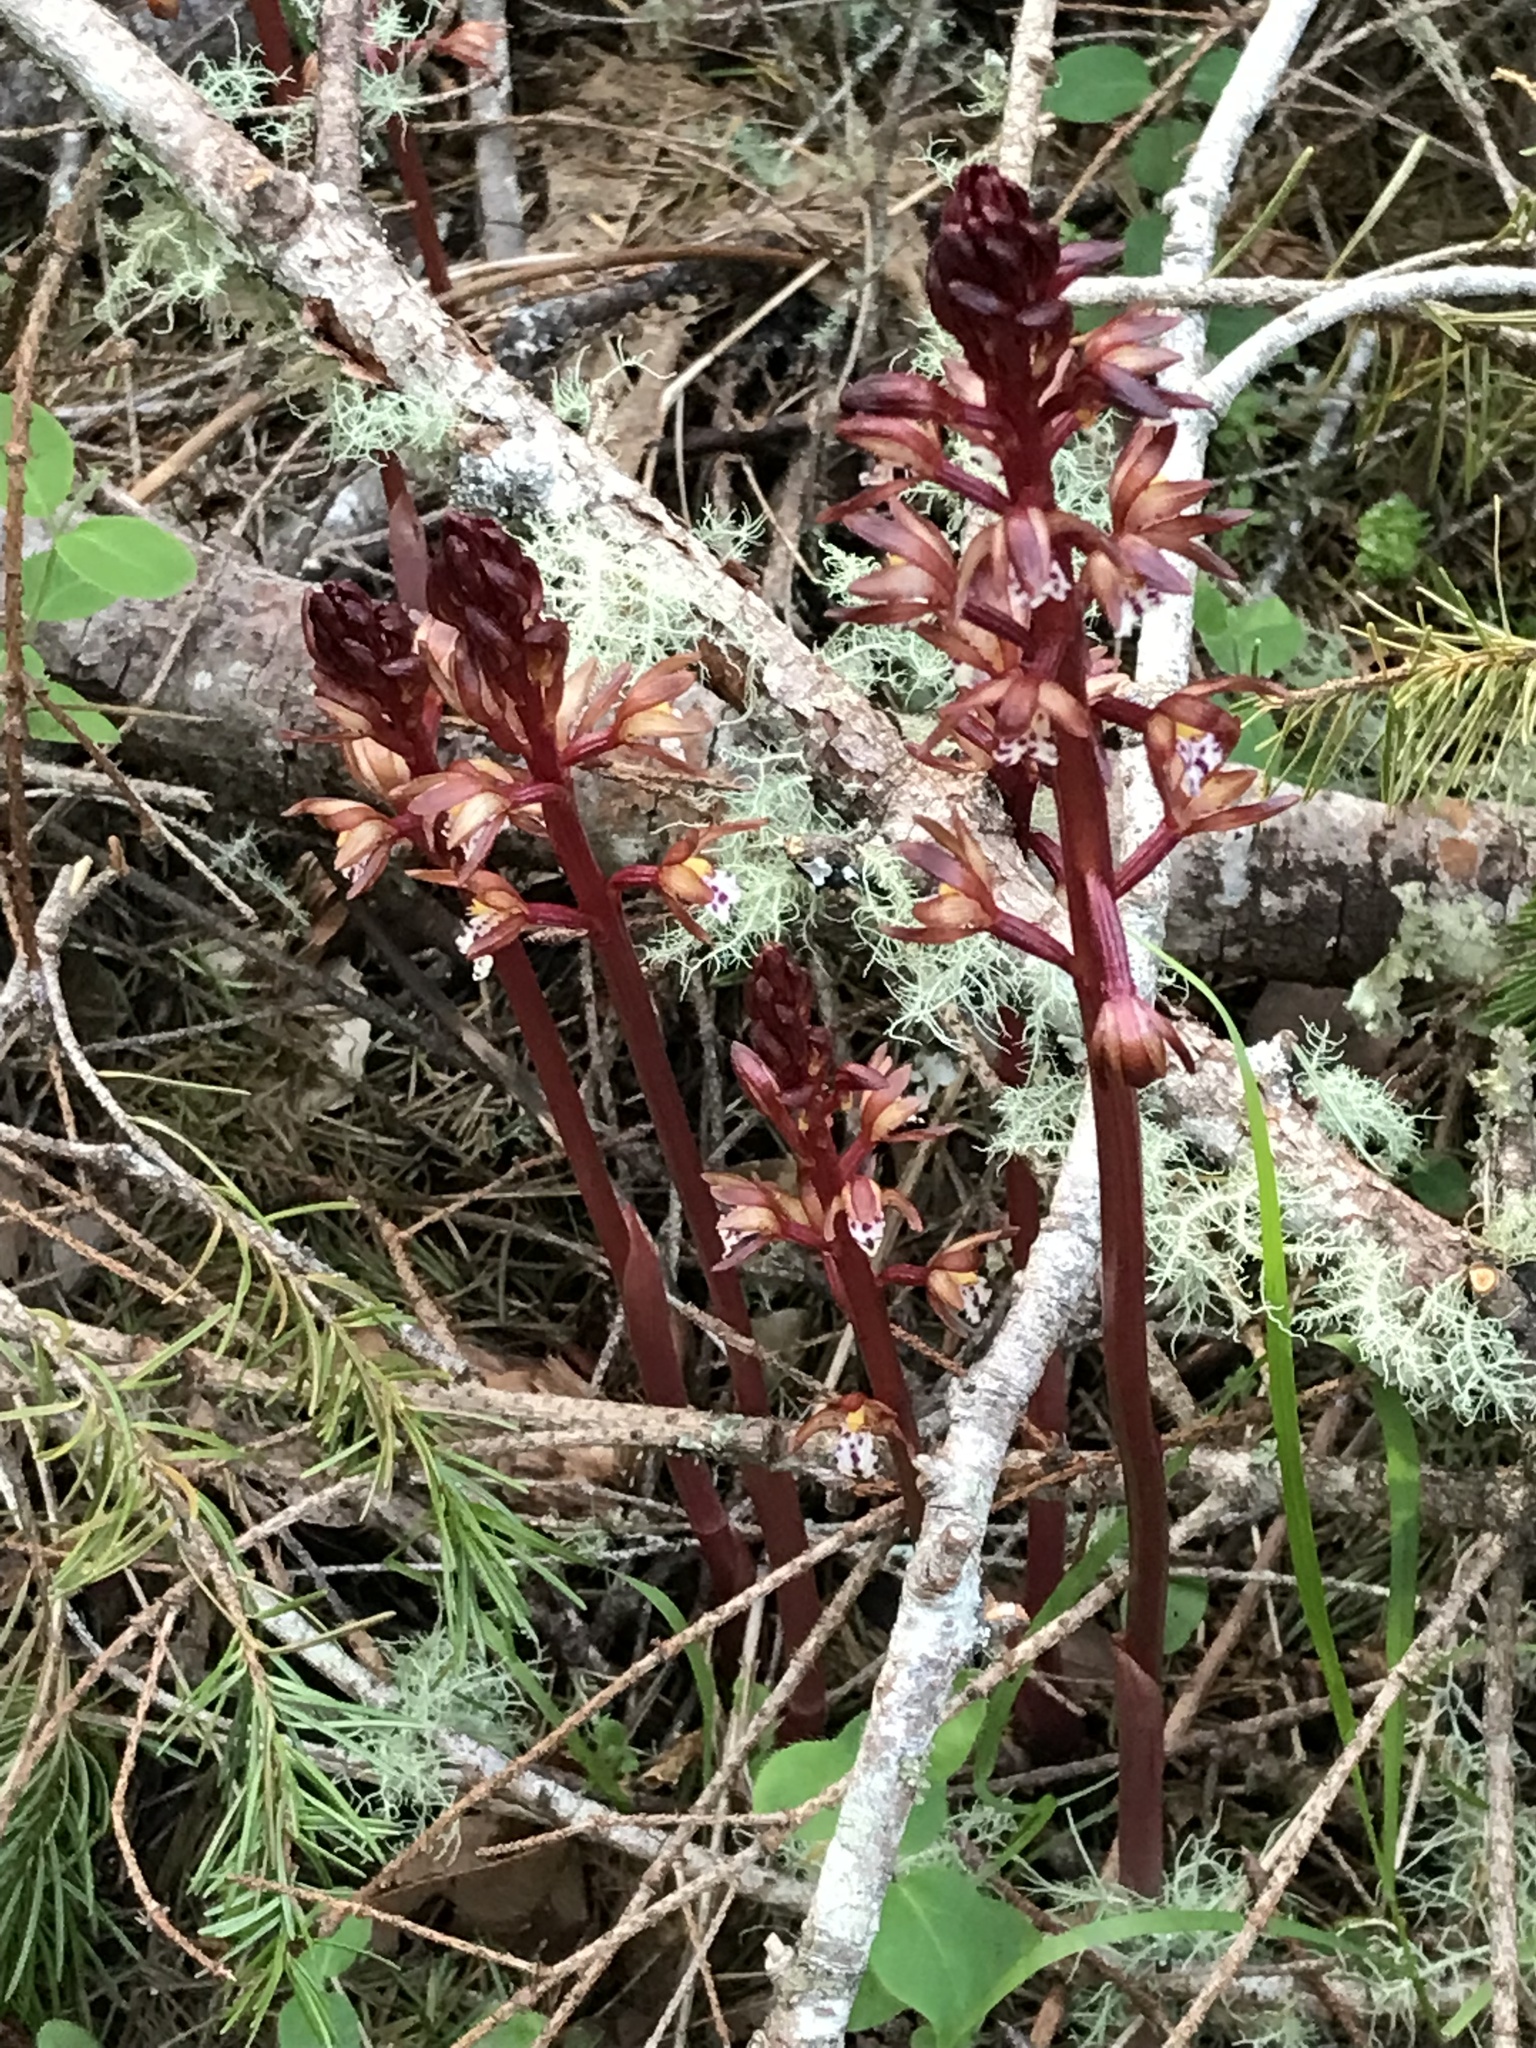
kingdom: Plantae
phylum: Tracheophyta
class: Liliopsida
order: Asparagales
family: Orchidaceae
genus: Corallorhiza
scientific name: Corallorhiza maculata
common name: Spotted coralroot
